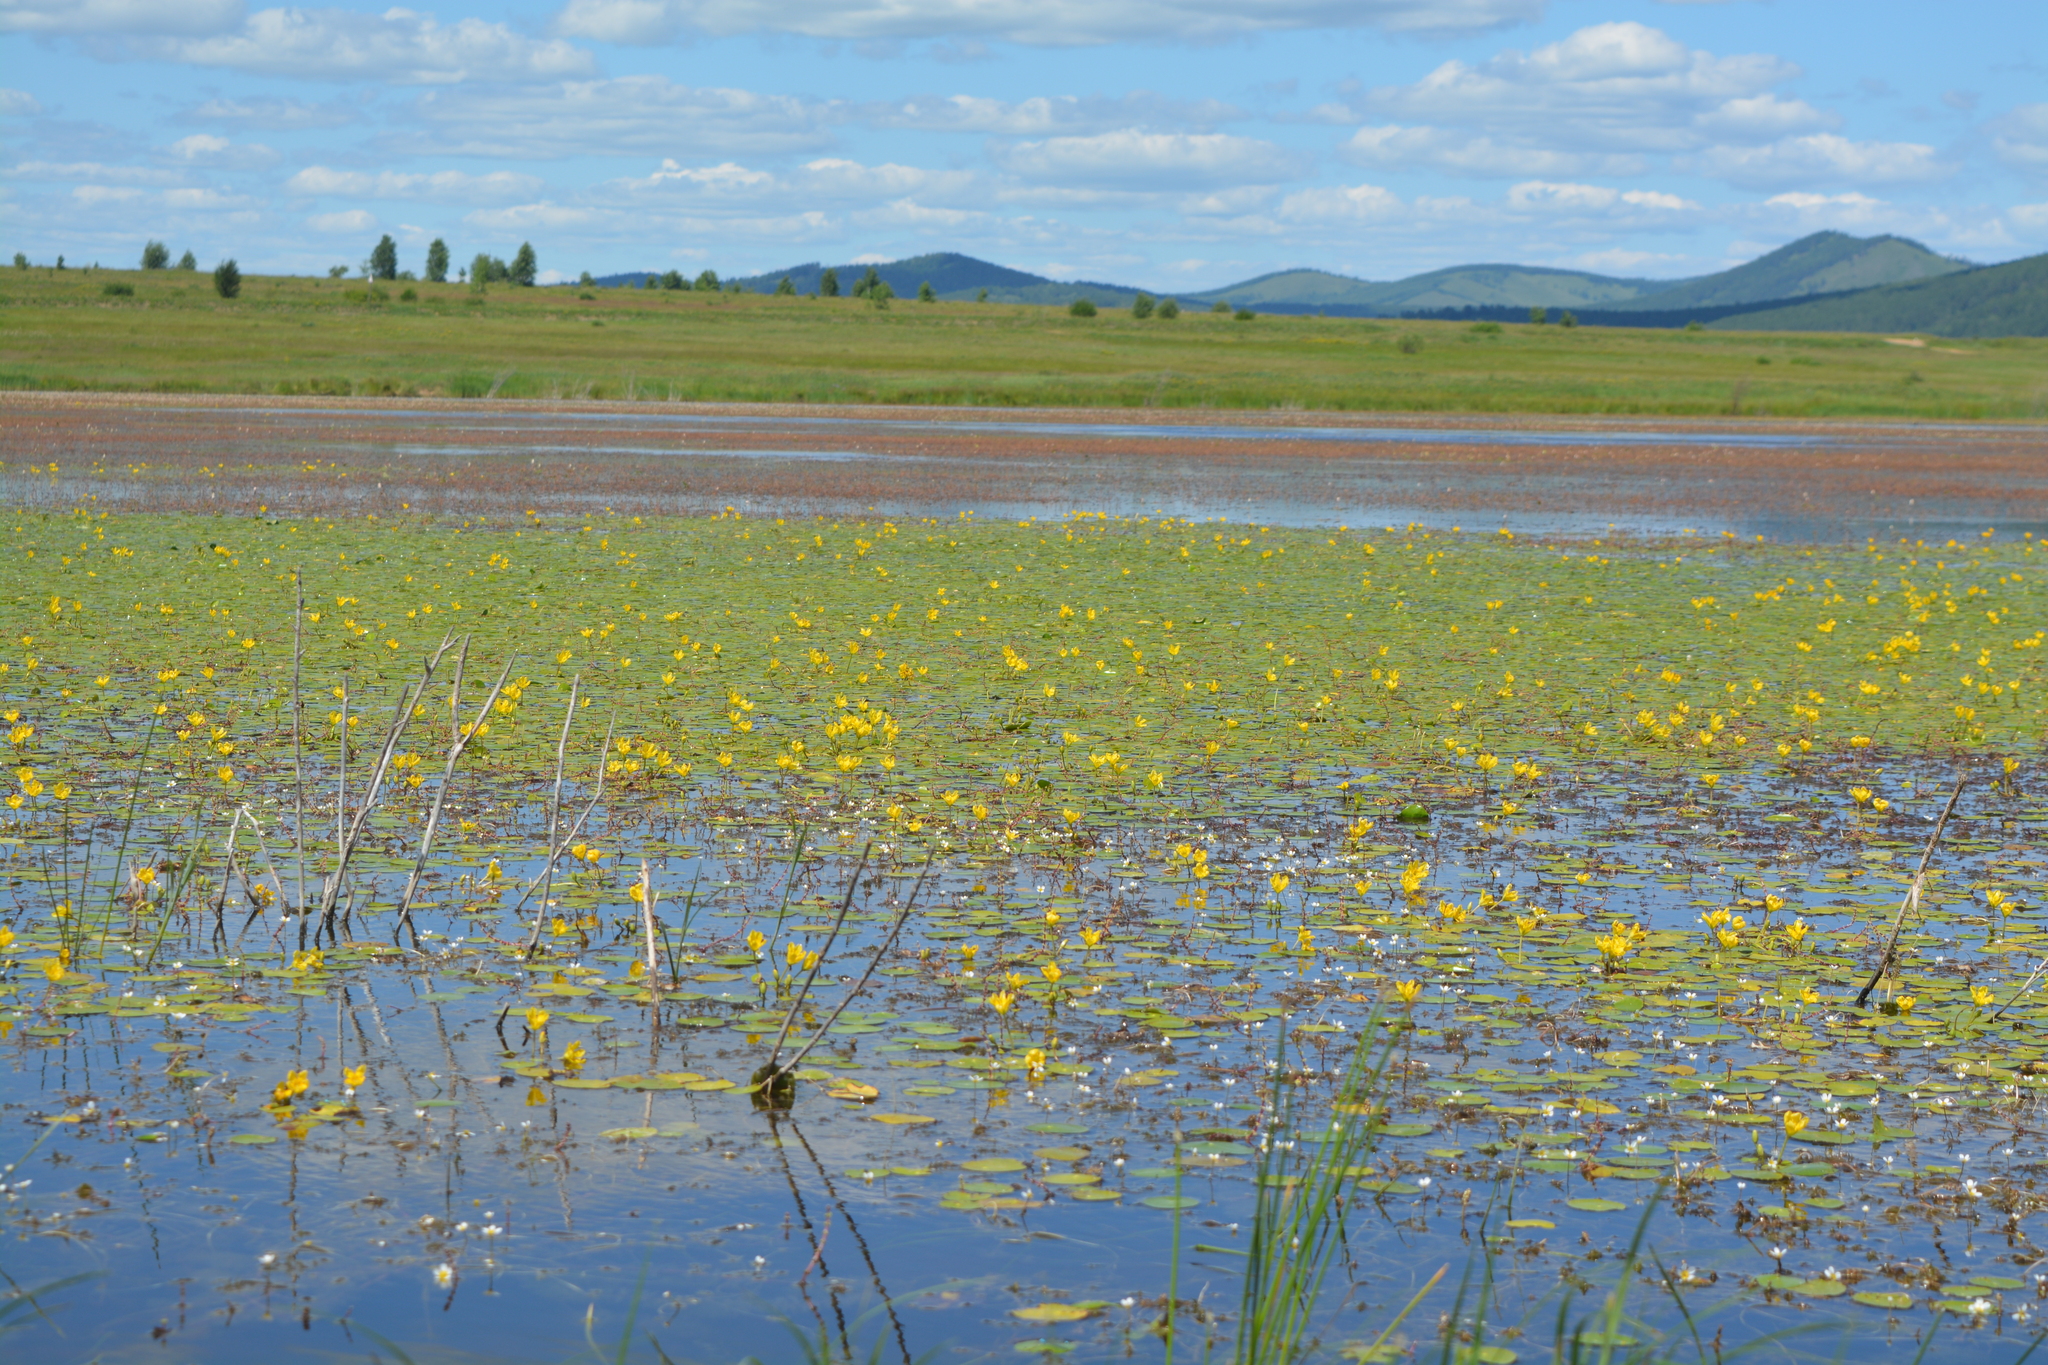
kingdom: Plantae
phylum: Tracheophyta
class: Magnoliopsida
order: Asterales
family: Menyanthaceae
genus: Nymphoides
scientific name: Nymphoides peltata
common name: Fringed water-lily
